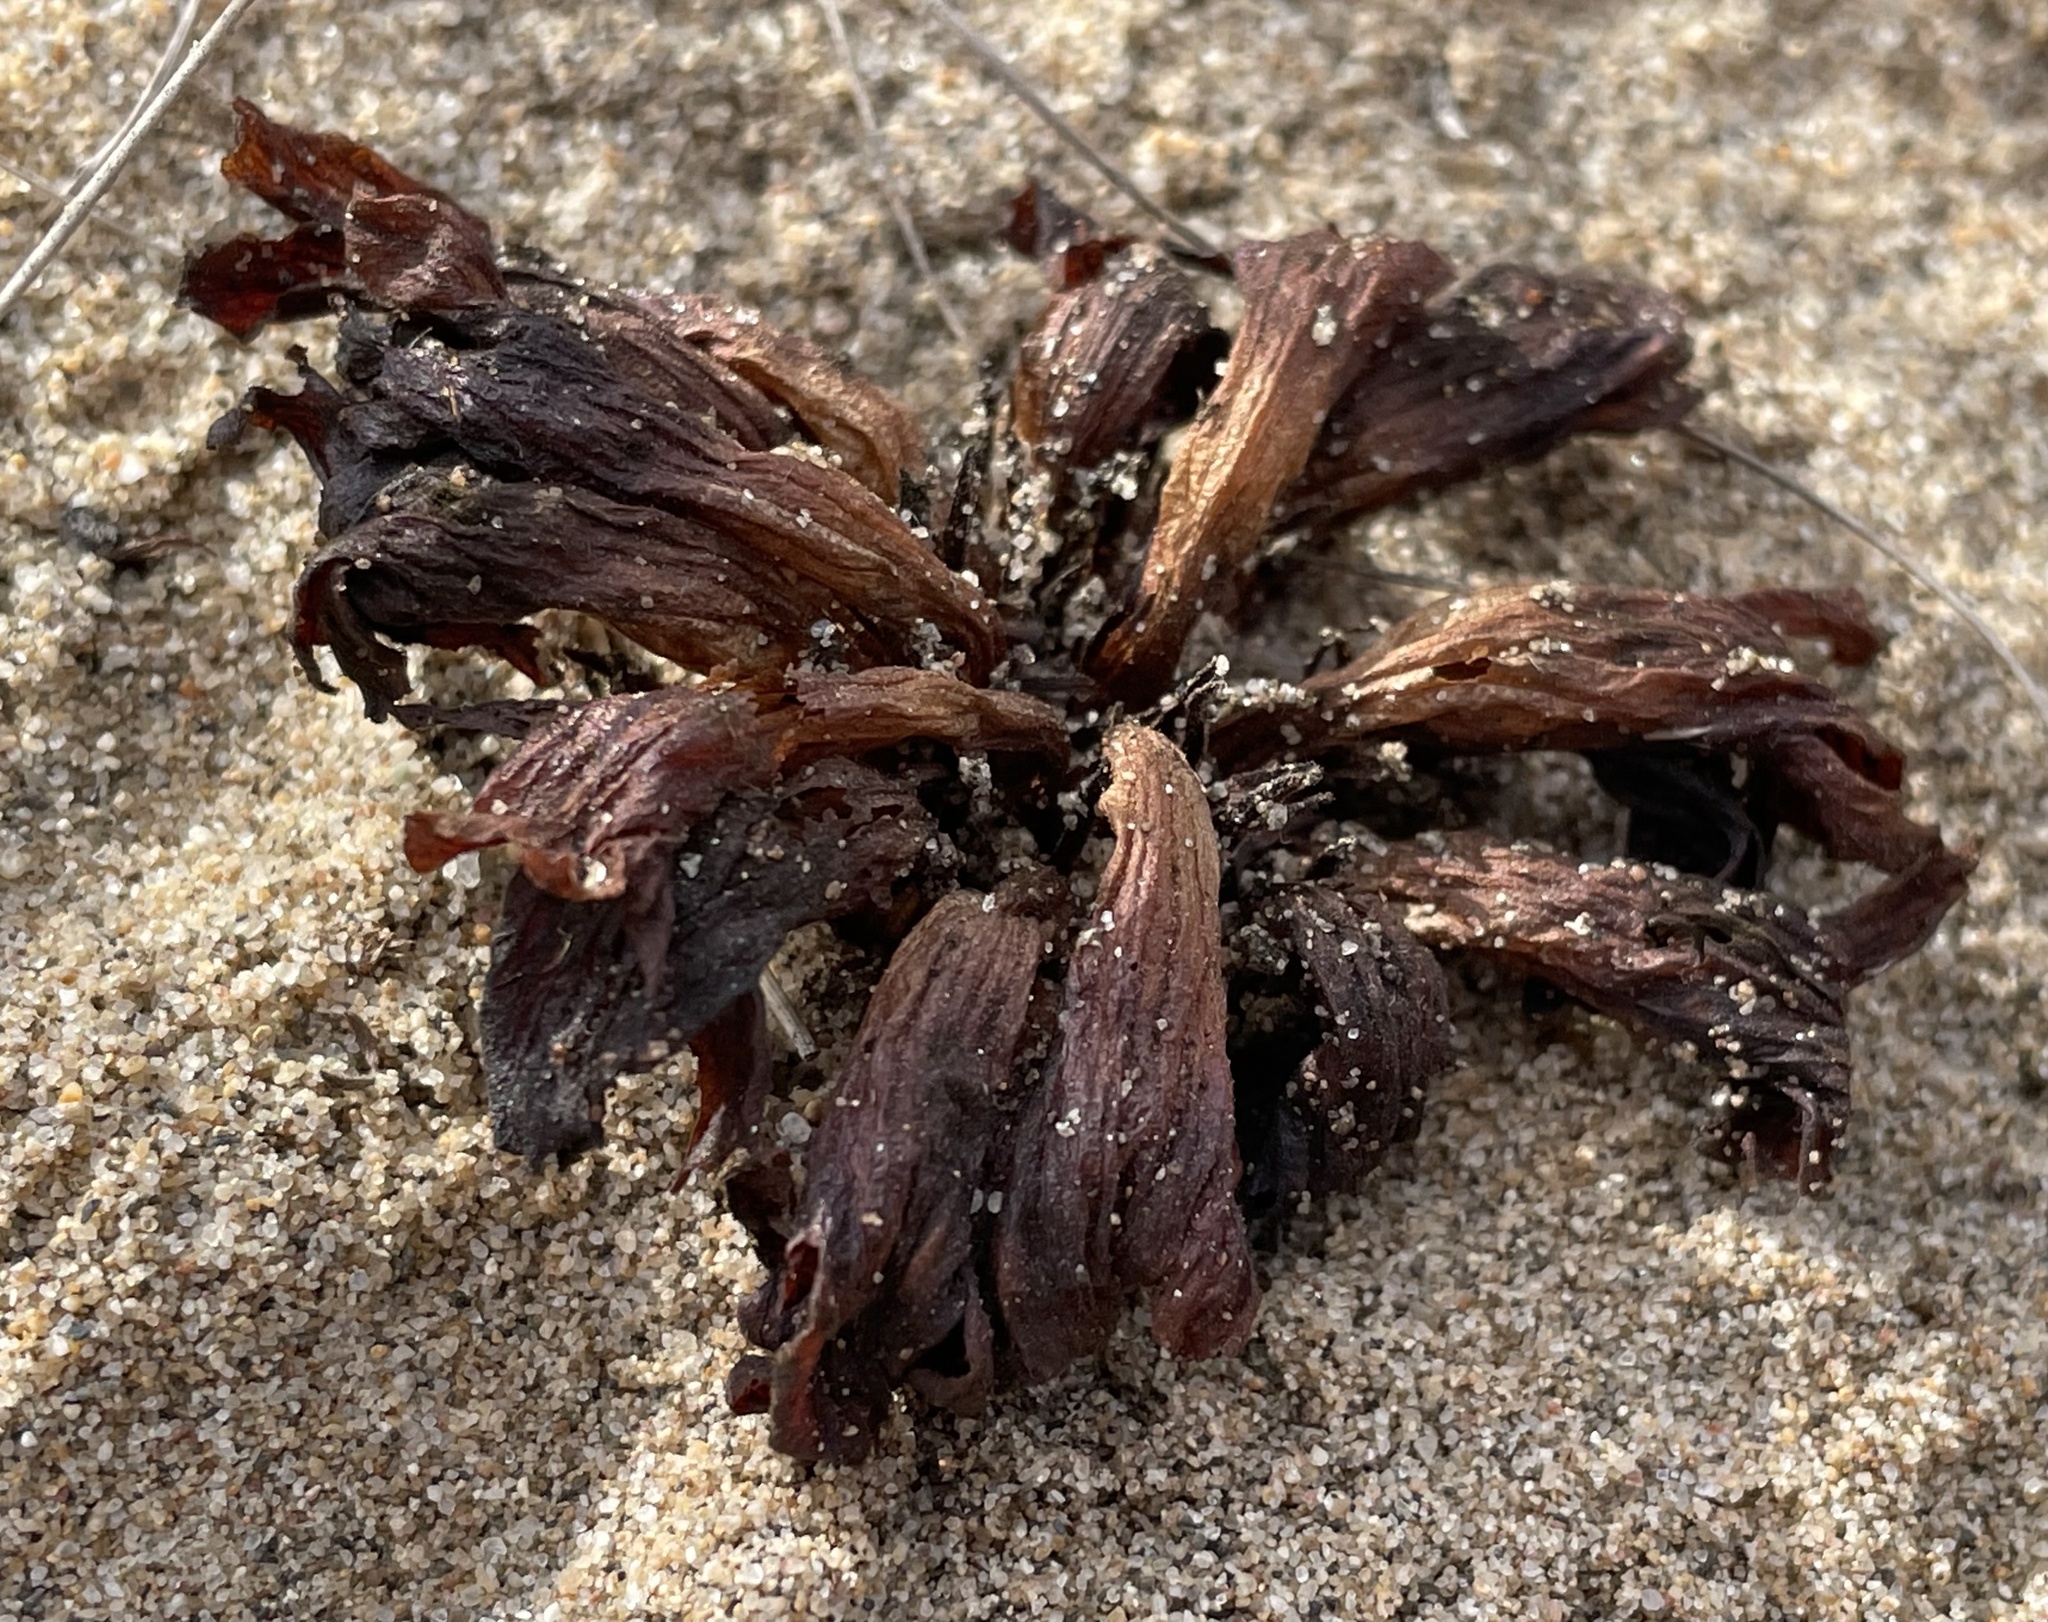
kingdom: Plantae
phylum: Tracheophyta
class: Magnoliopsida
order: Lamiales
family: Orobanchaceae
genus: Aphyllon
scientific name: Aphyllon californicum
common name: California broomrape
